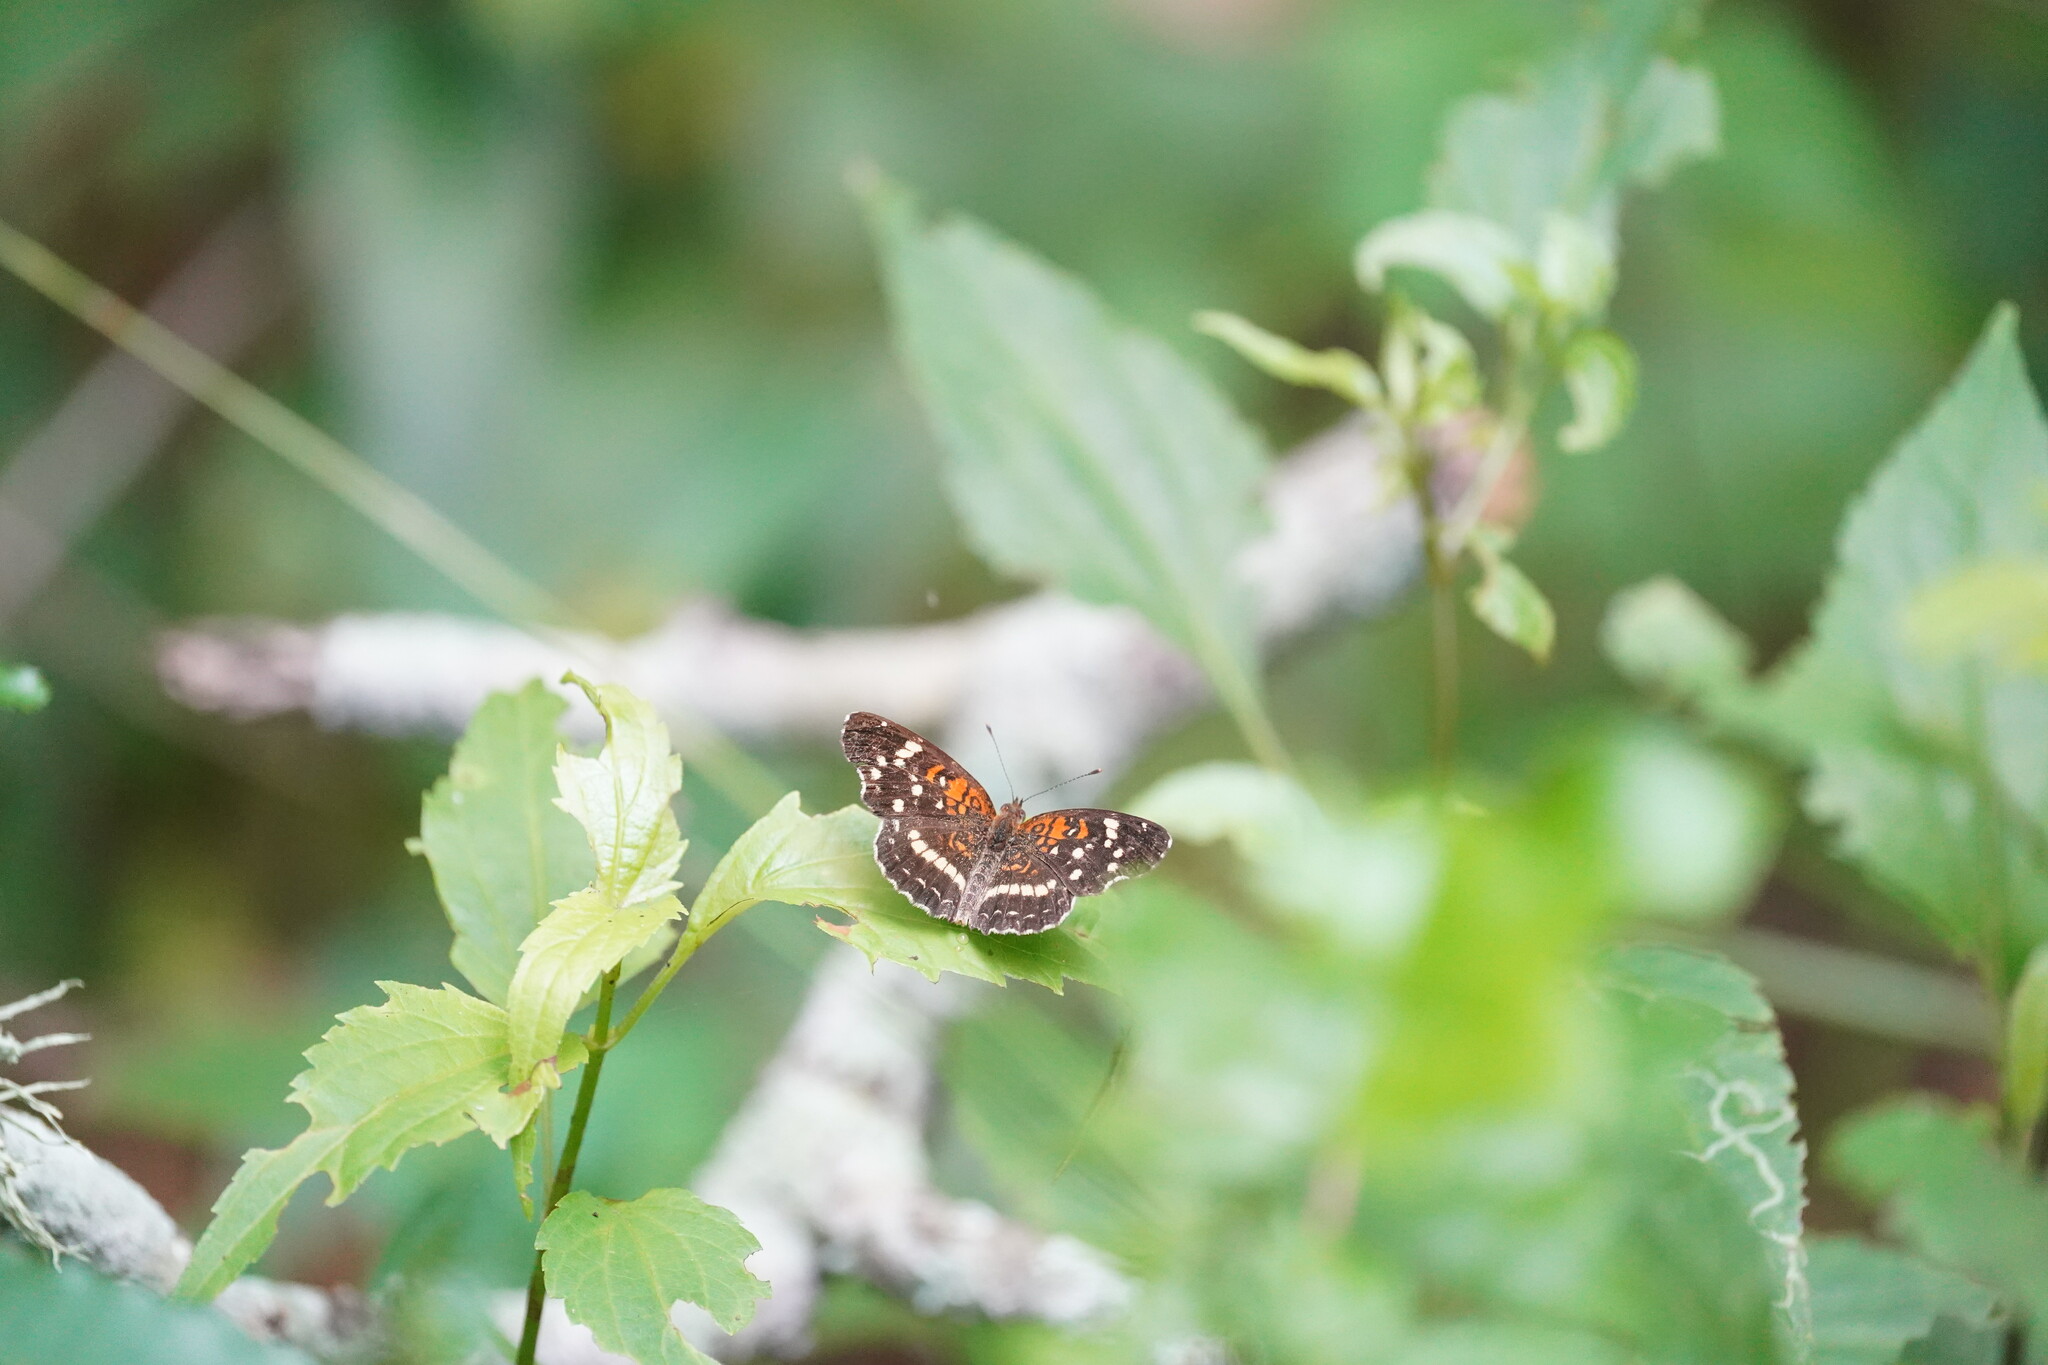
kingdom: Animalia
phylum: Arthropoda
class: Insecta
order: Lepidoptera
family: Nymphalidae
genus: Anthanassa
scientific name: Anthanassa taxana
